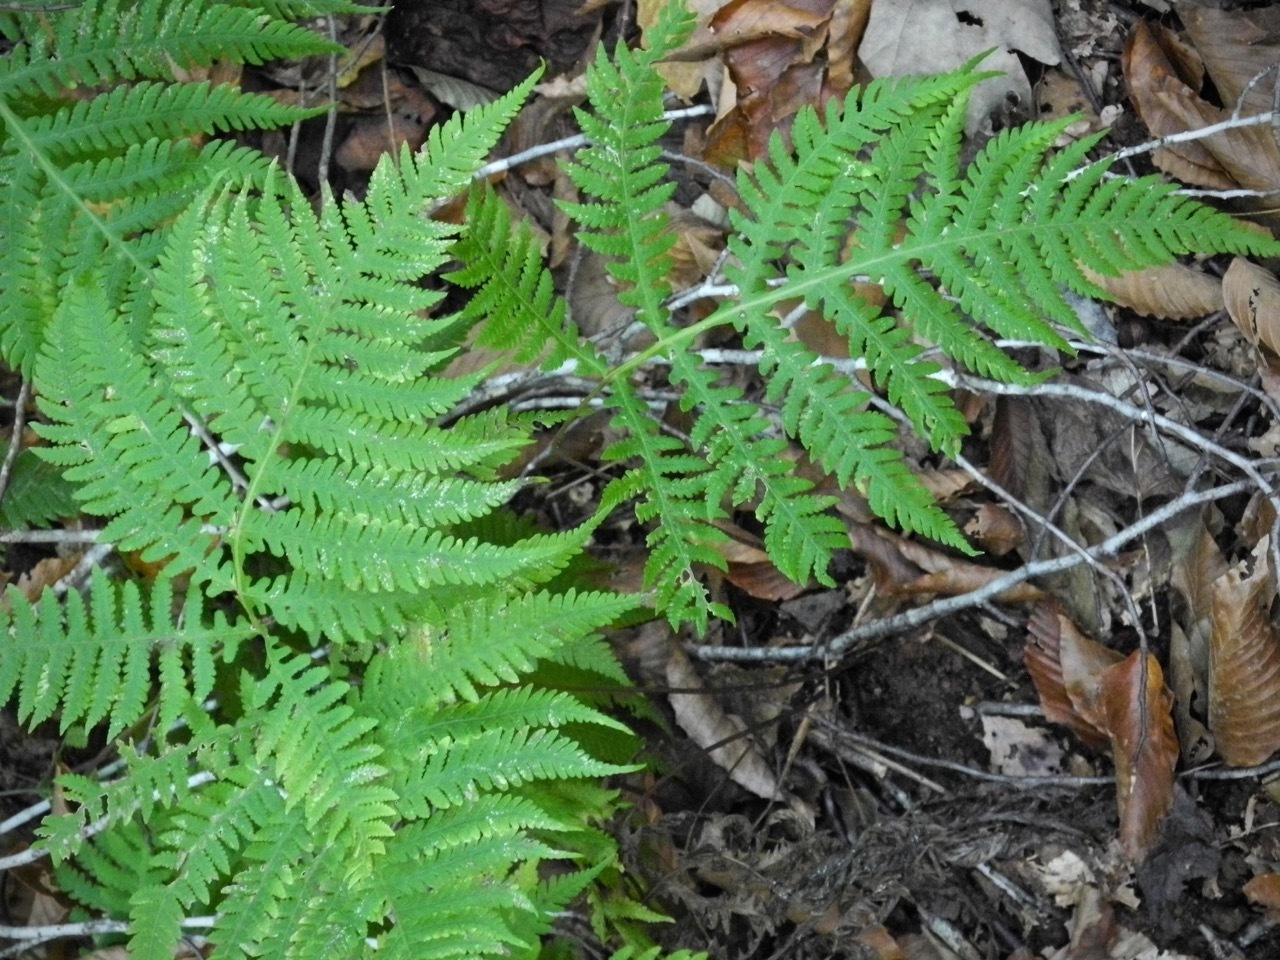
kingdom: Plantae
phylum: Tracheophyta
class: Polypodiopsida
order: Polypodiales
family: Thelypteridaceae
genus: Phegopteris
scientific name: Phegopteris hexagonoptera
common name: Broad beech fern
